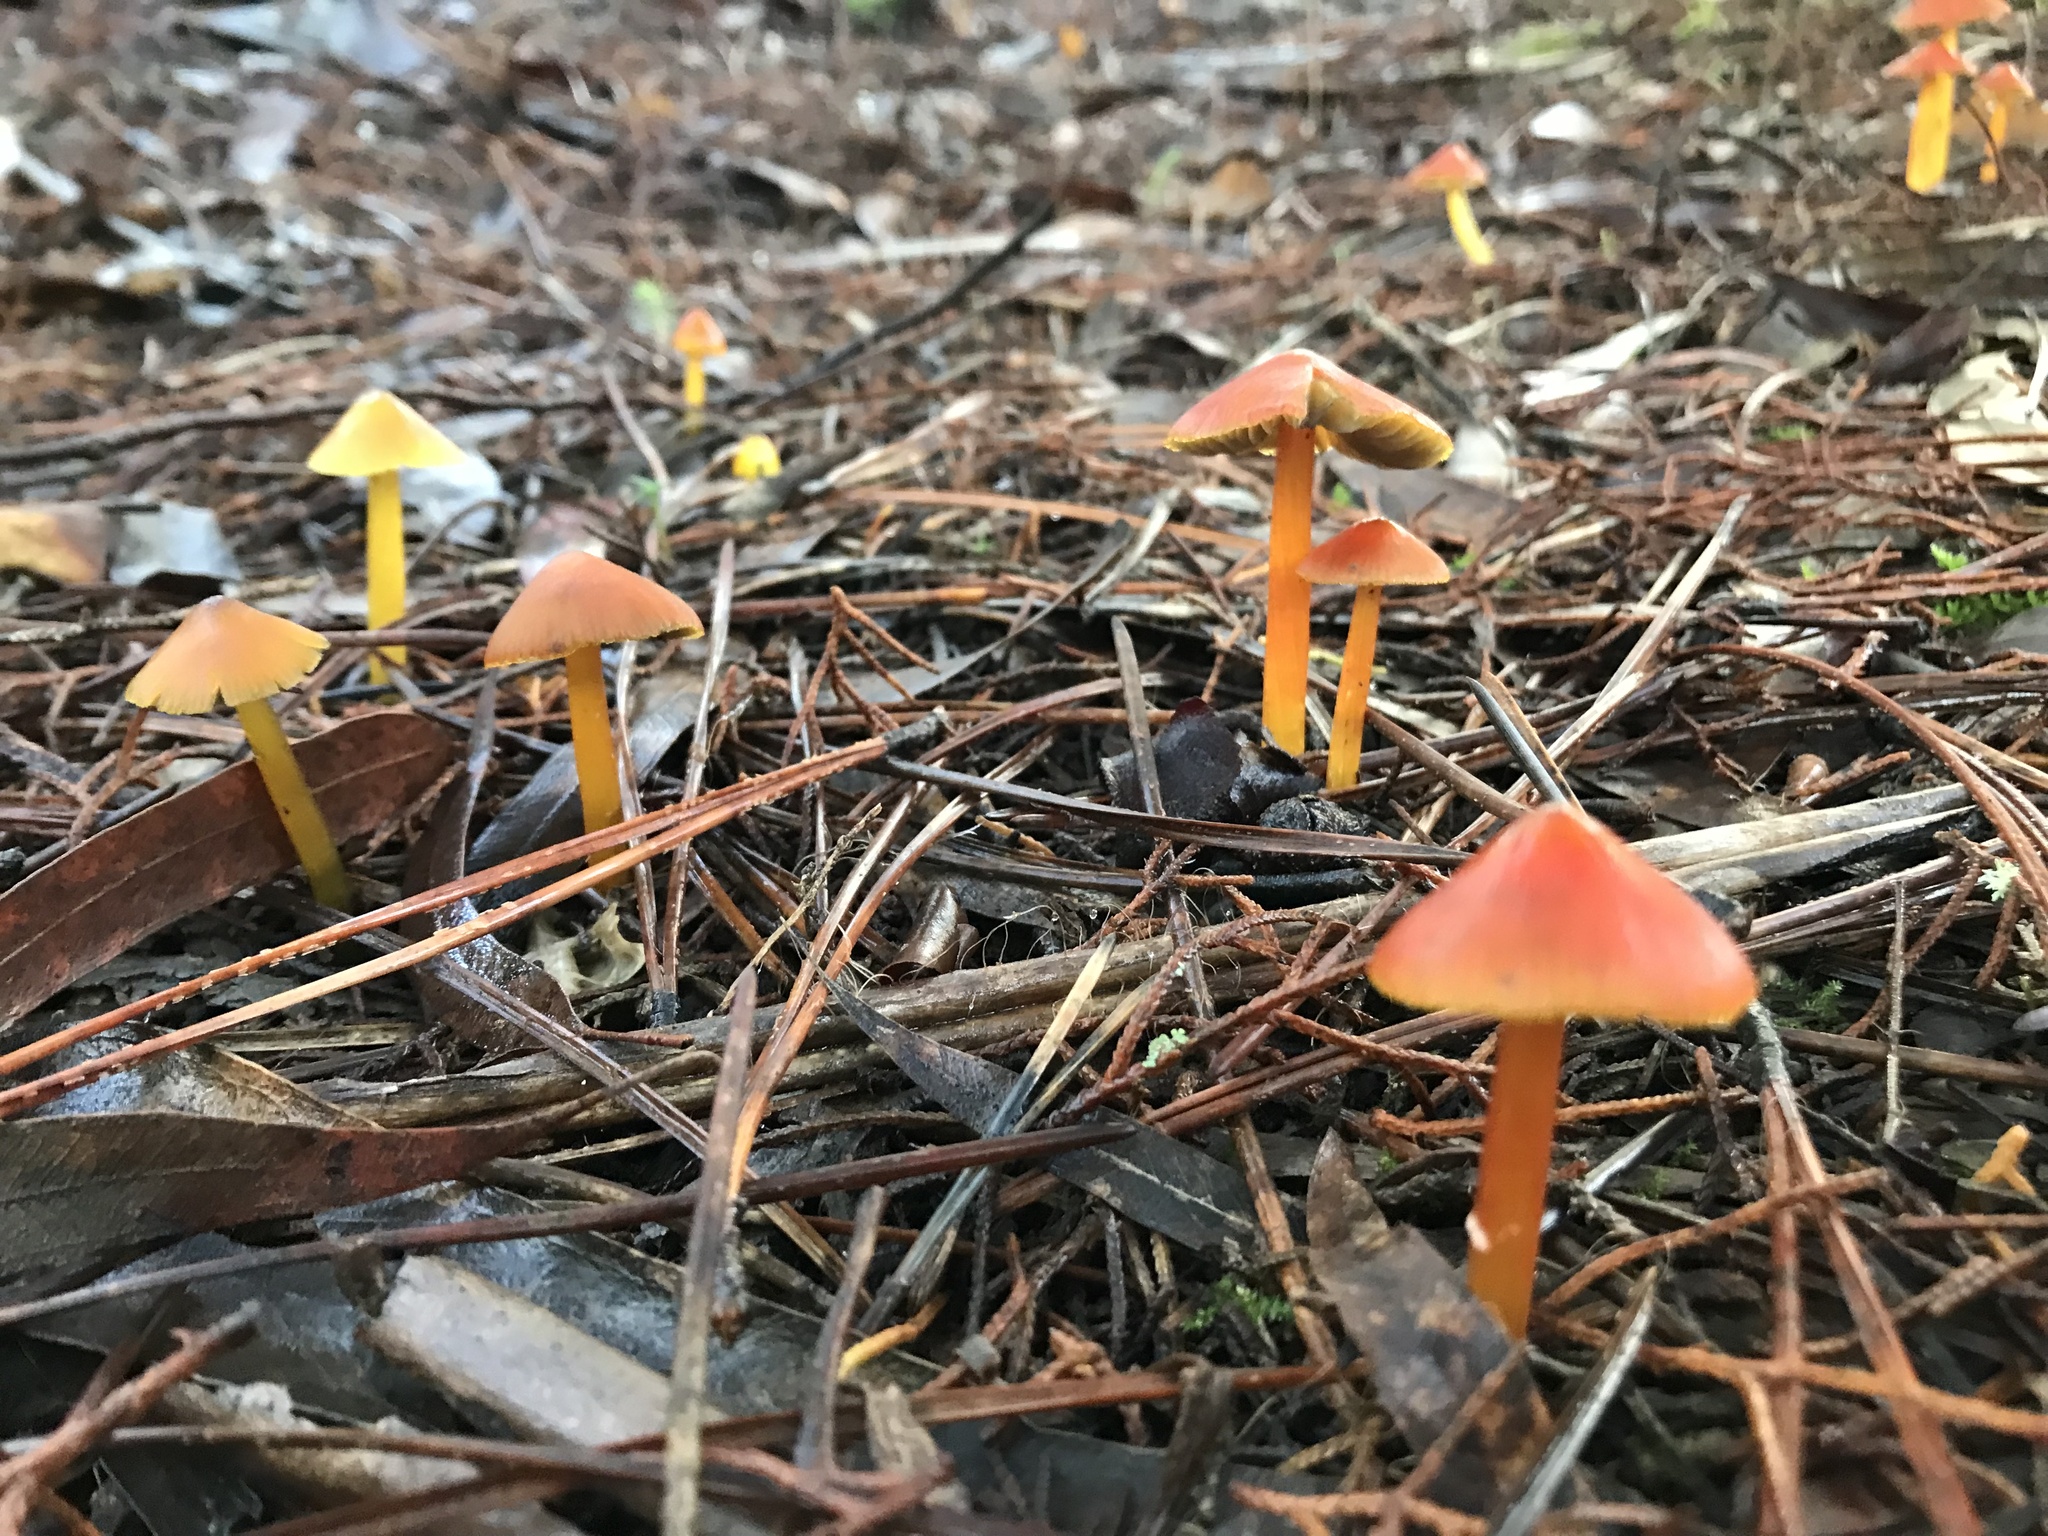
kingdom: Fungi
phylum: Basidiomycota
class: Agaricomycetes
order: Agaricales
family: Hygrophoraceae
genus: Hygrocybe
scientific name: Hygrocybe conica
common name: Blackening wax-cap
